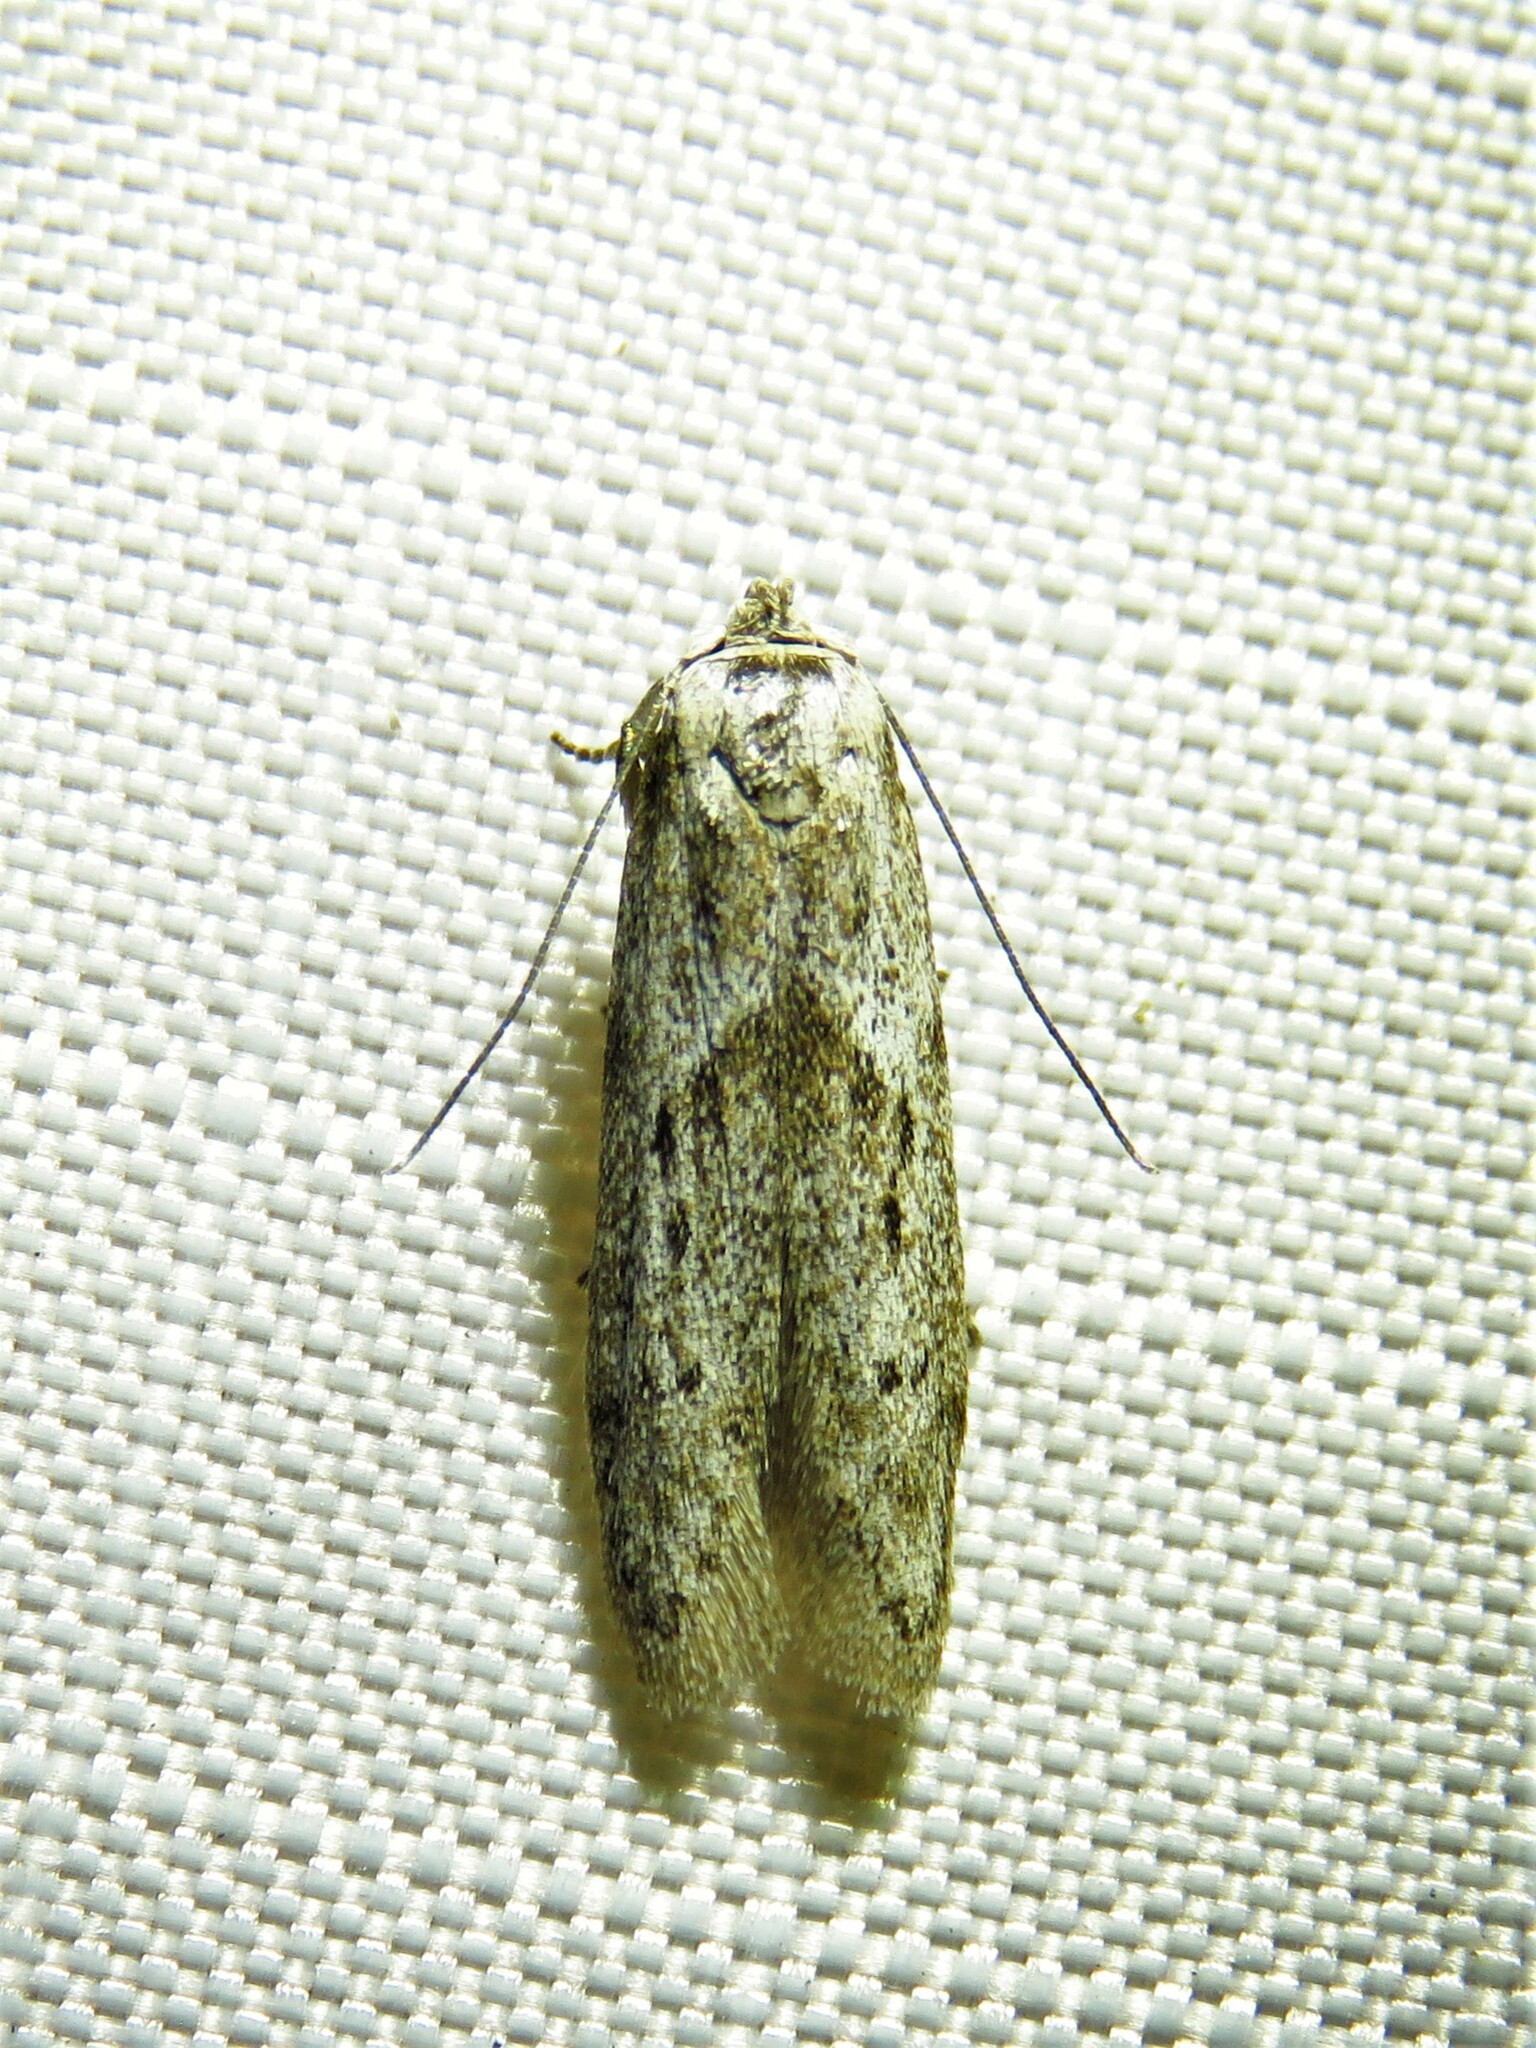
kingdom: Animalia
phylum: Arthropoda
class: Insecta
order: Lepidoptera
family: Blastobasidae
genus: Hypatopa
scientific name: Hypatopa punctiferella
